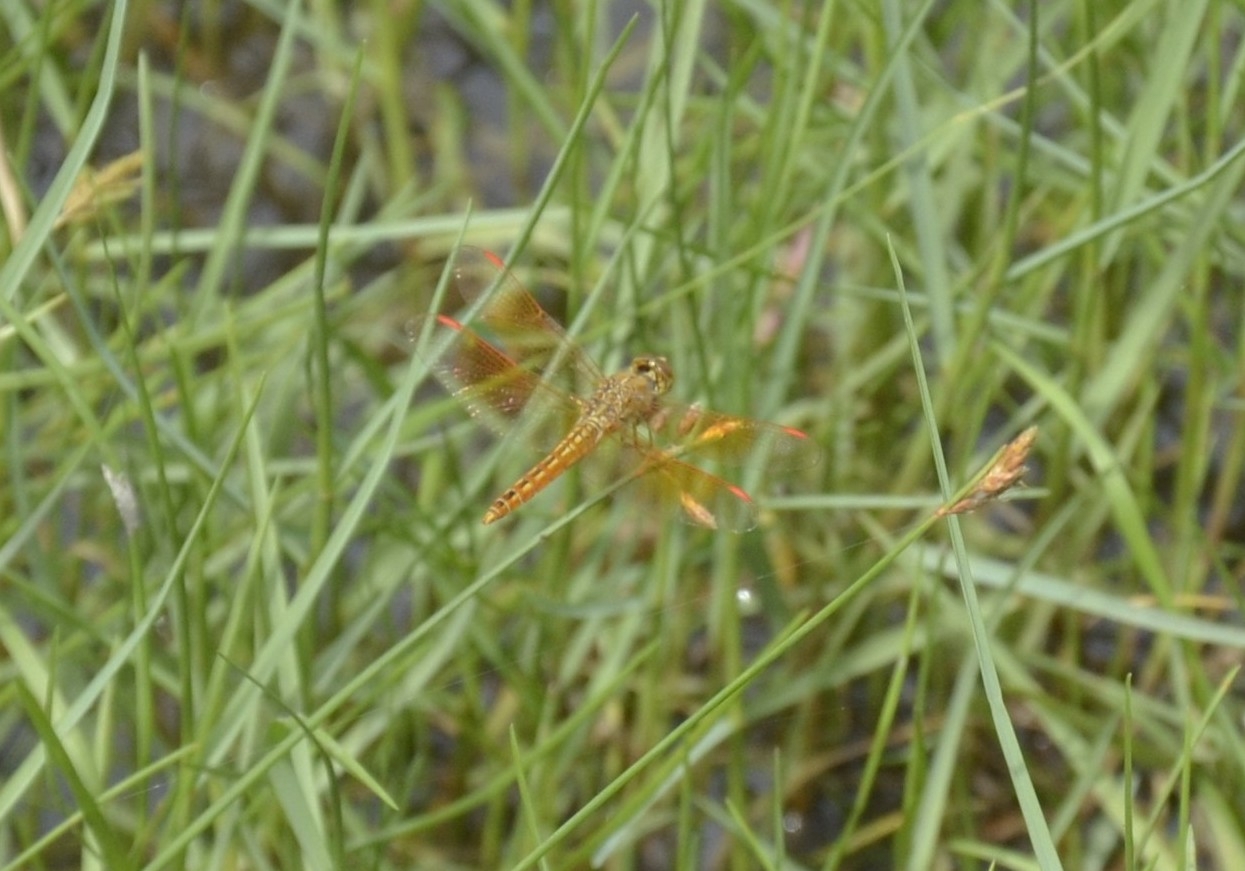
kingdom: Animalia
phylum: Arthropoda
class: Insecta
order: Odonata
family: Libellulidae
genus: Brachythemis
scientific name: Brachythemis contaminata
